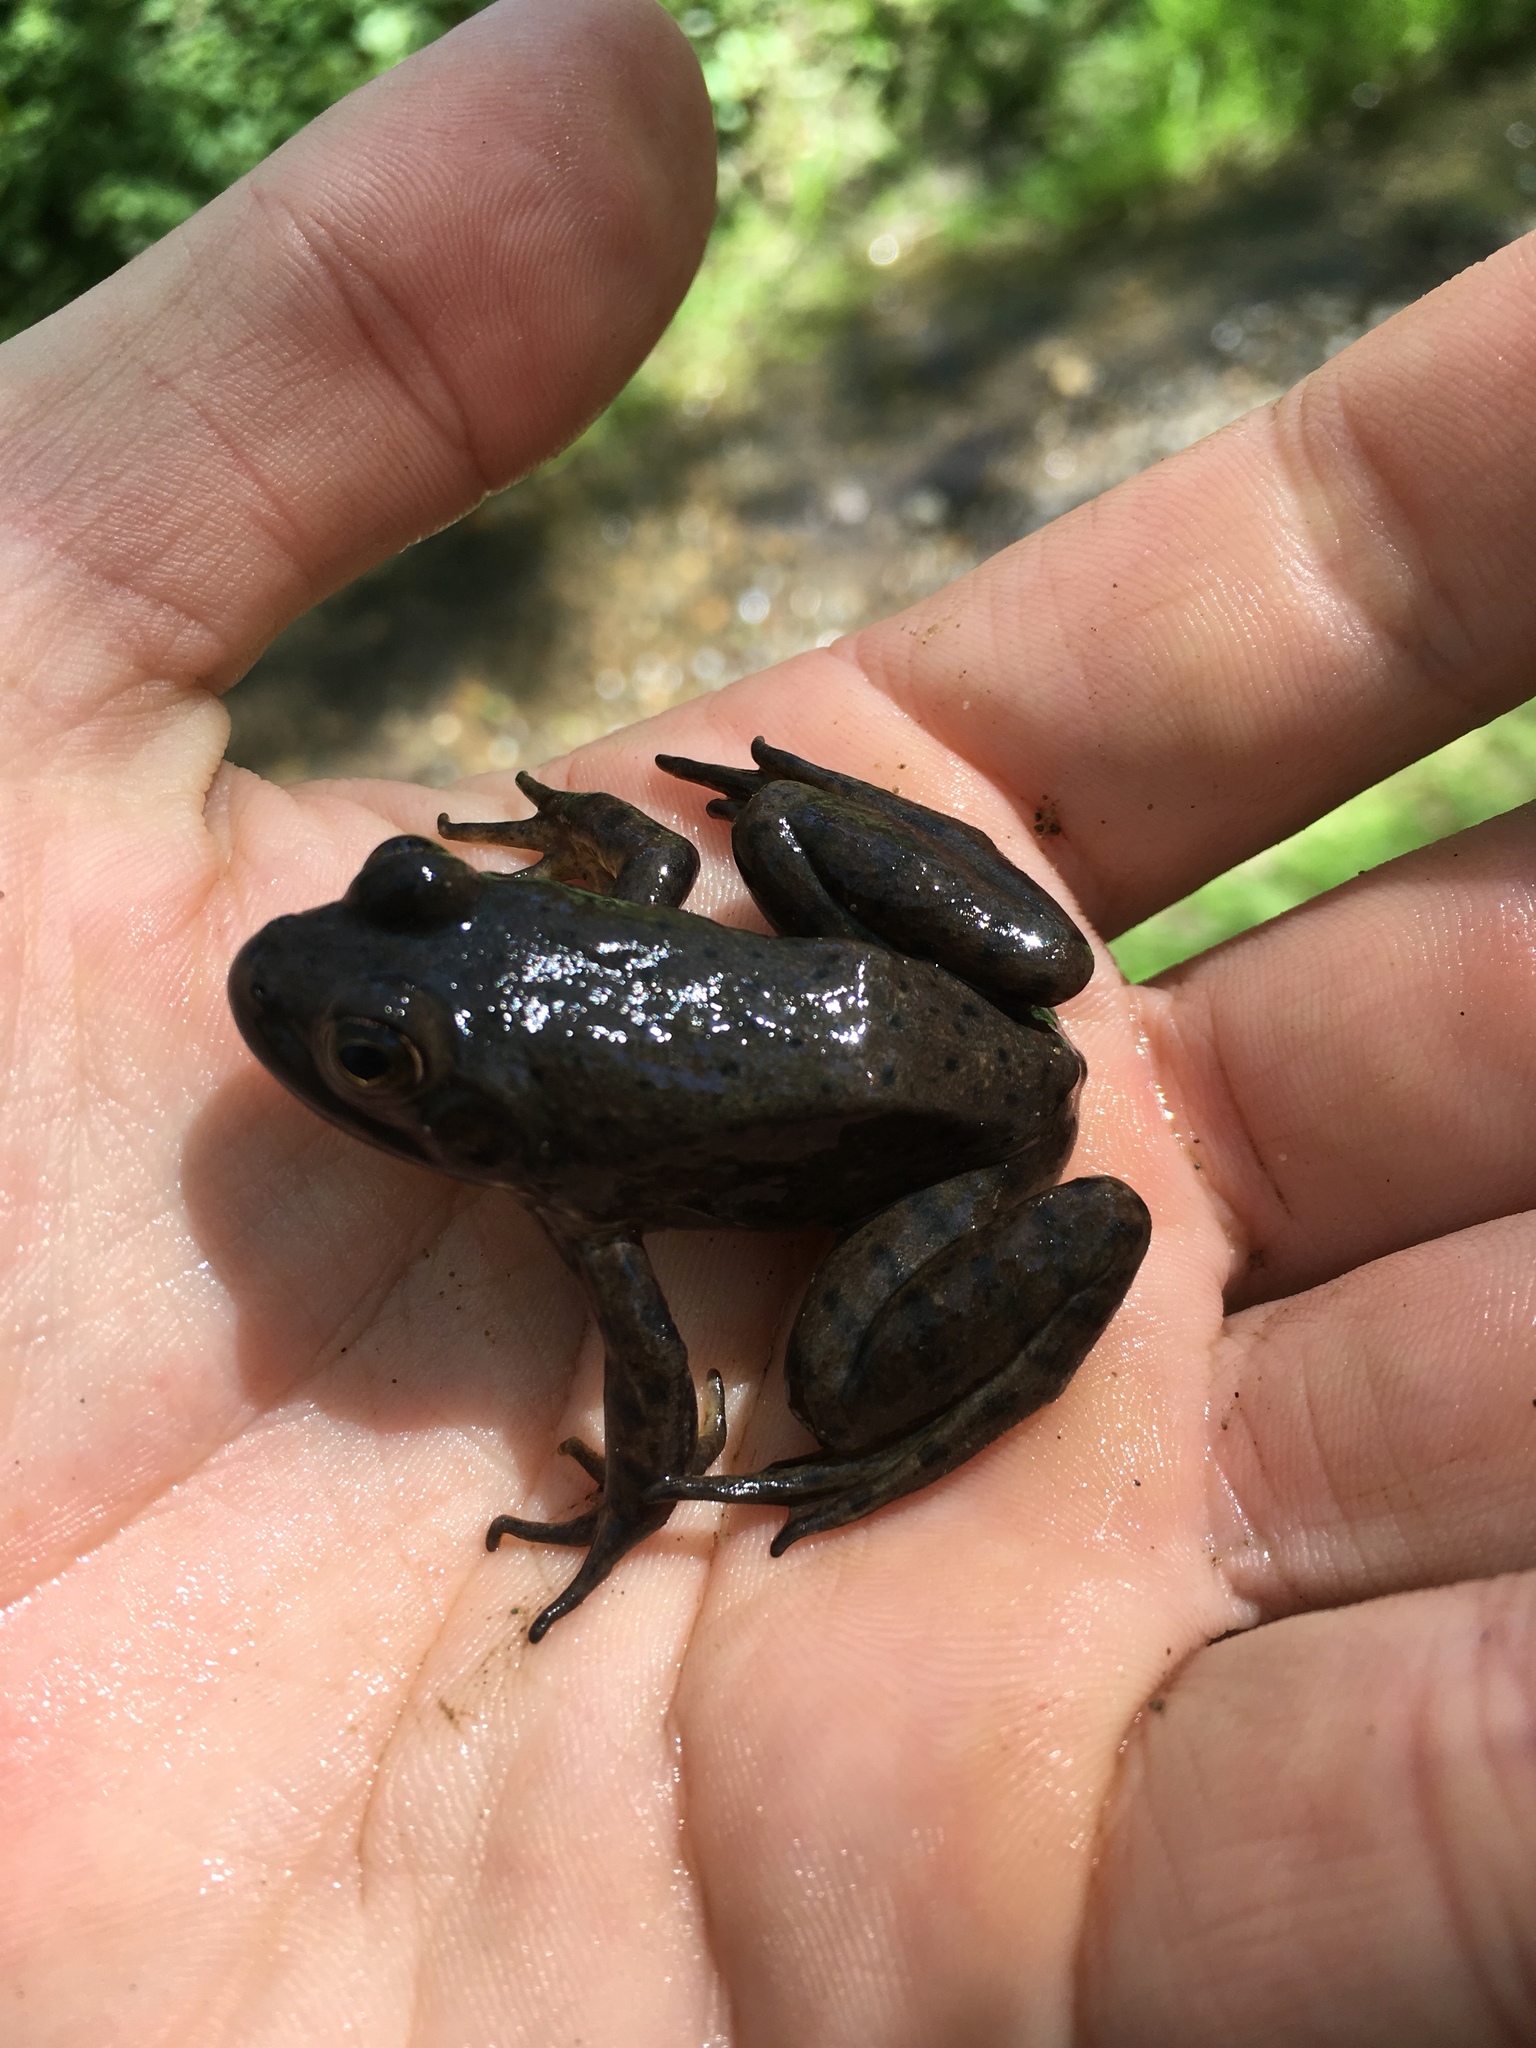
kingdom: Animalia
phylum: Chordata
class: Amphibia
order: Anura
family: Ranidae
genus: Lithobates
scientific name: Lithobates catesbeianus
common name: American bullfrog
